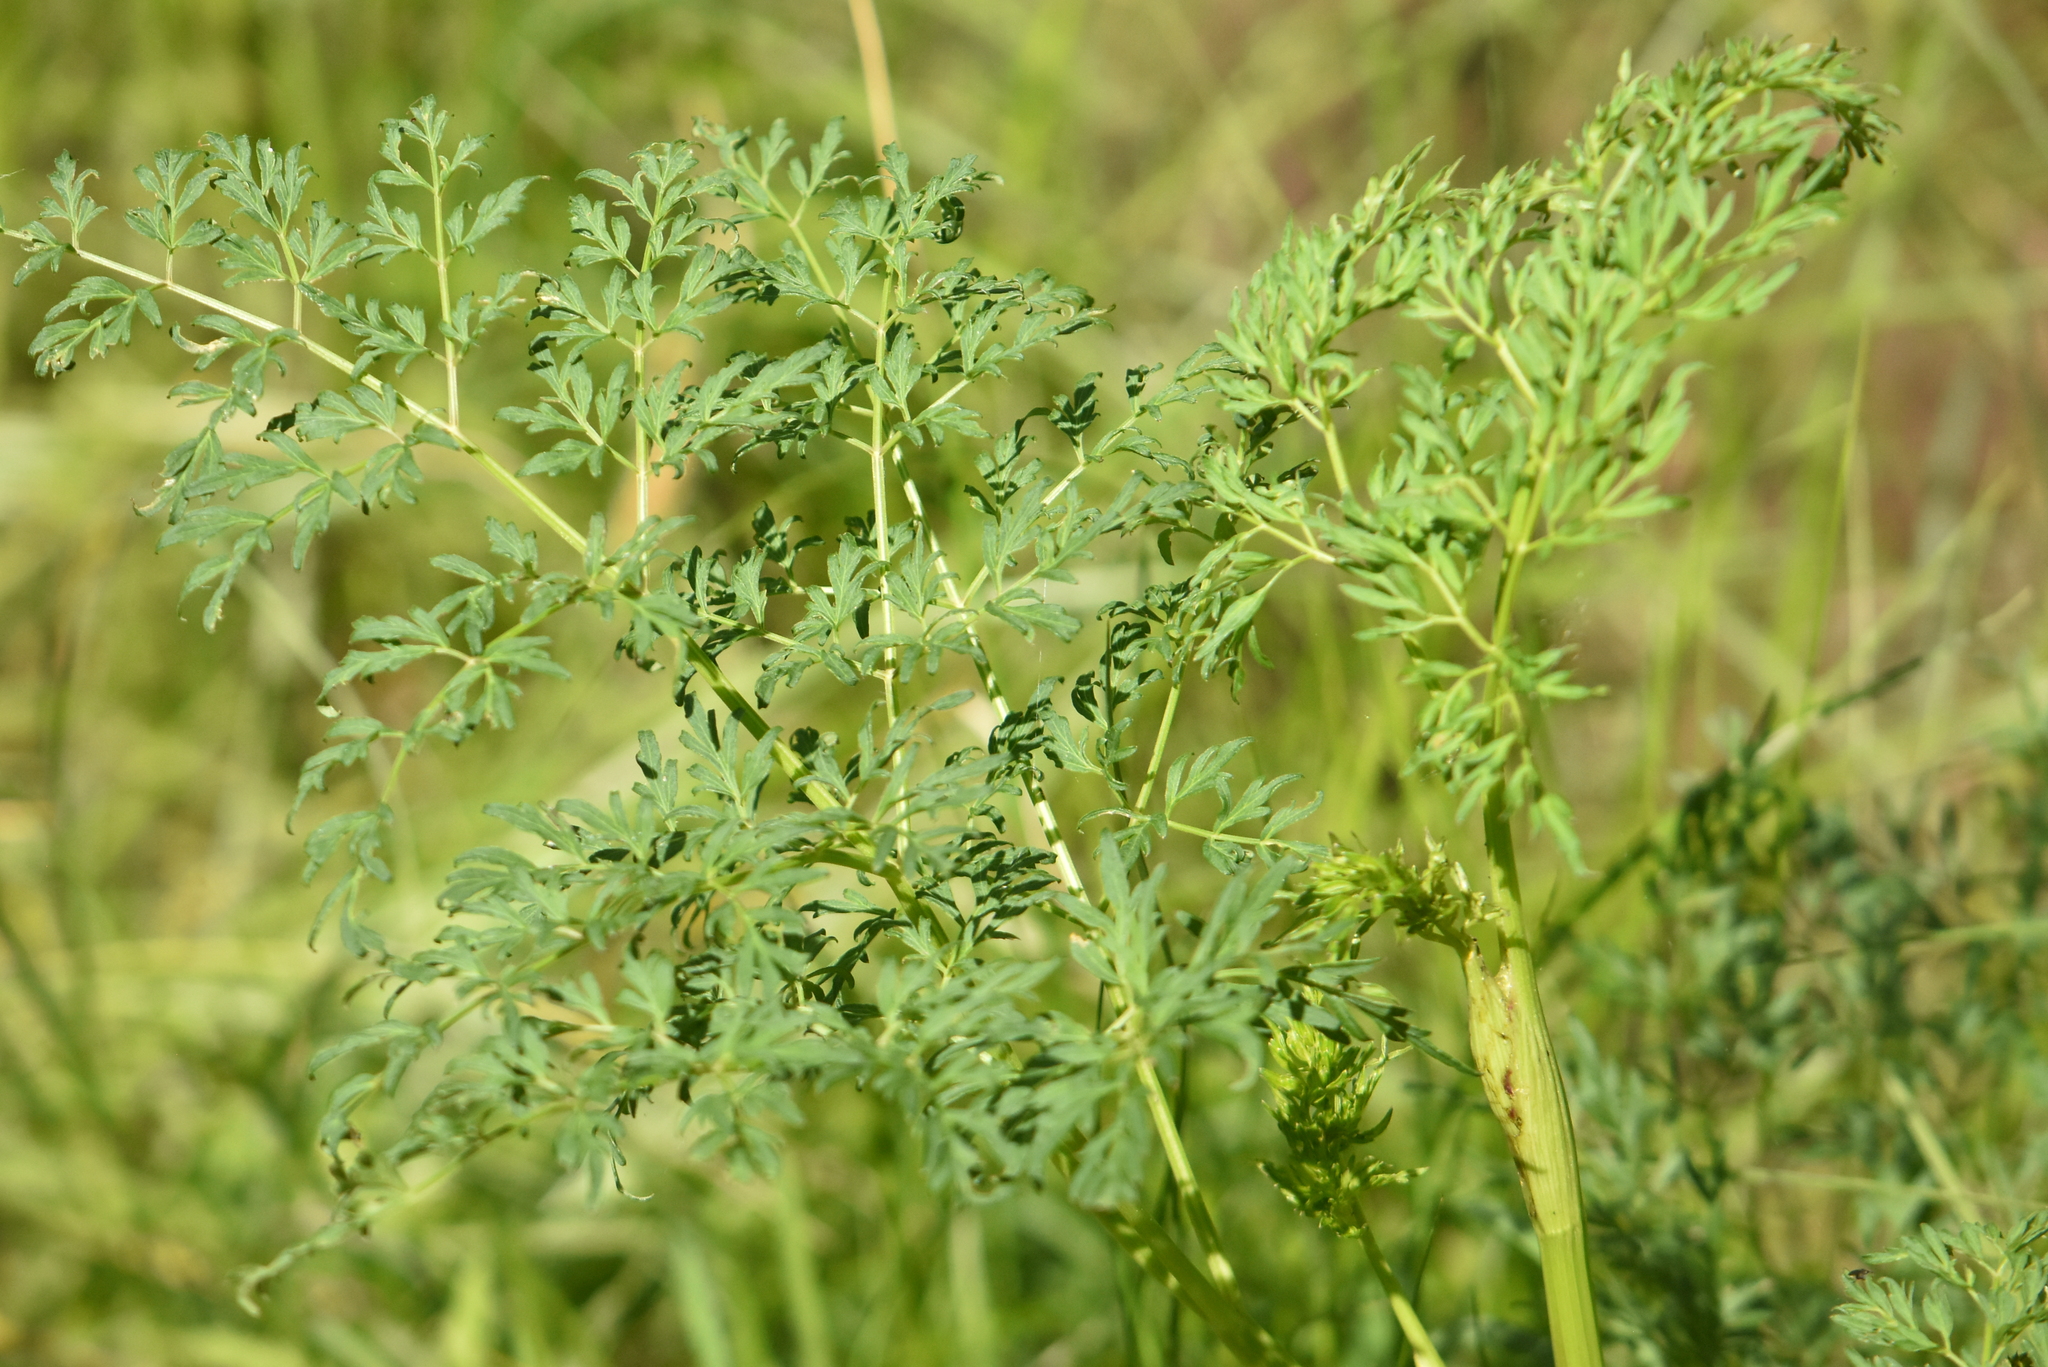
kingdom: Plantae
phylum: Tracheophyta
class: Magnoliopsida
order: Apiales
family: Apiaceae
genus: Selinum
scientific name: Selinum carvifolia
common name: Cambridge milk-parsley
